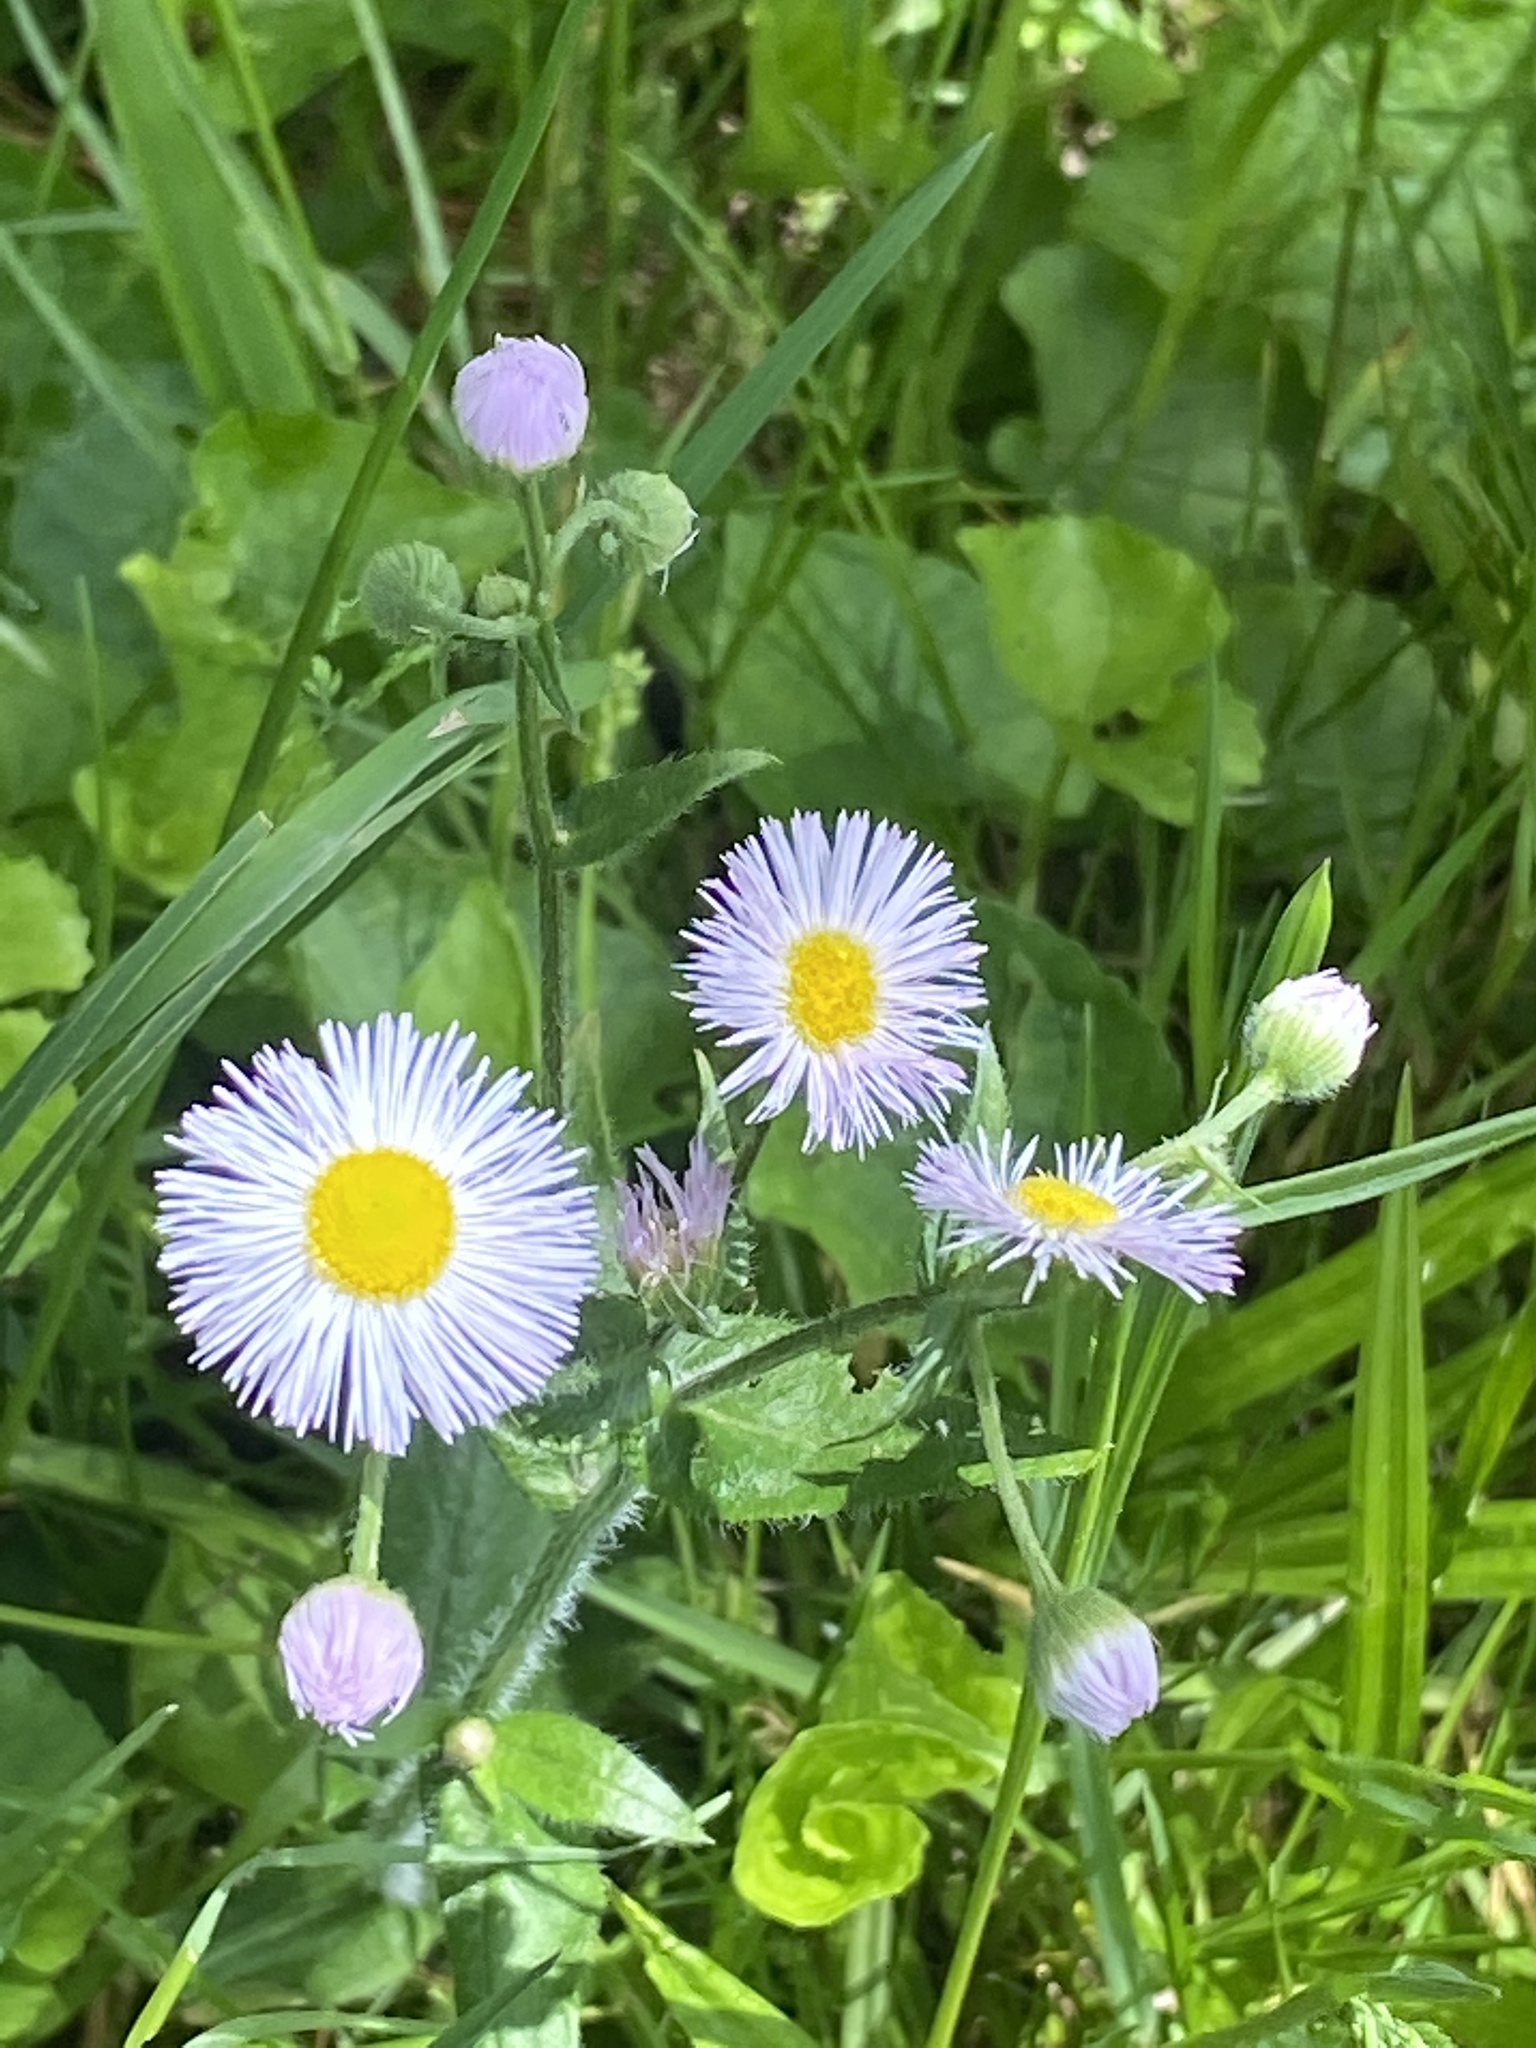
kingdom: Plantae
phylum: Tracheophyta
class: Magnoliopsida
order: Asterales
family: Asteraceae
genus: Erigeron
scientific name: Erigeron philadelphicus
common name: Robin's-plantain
